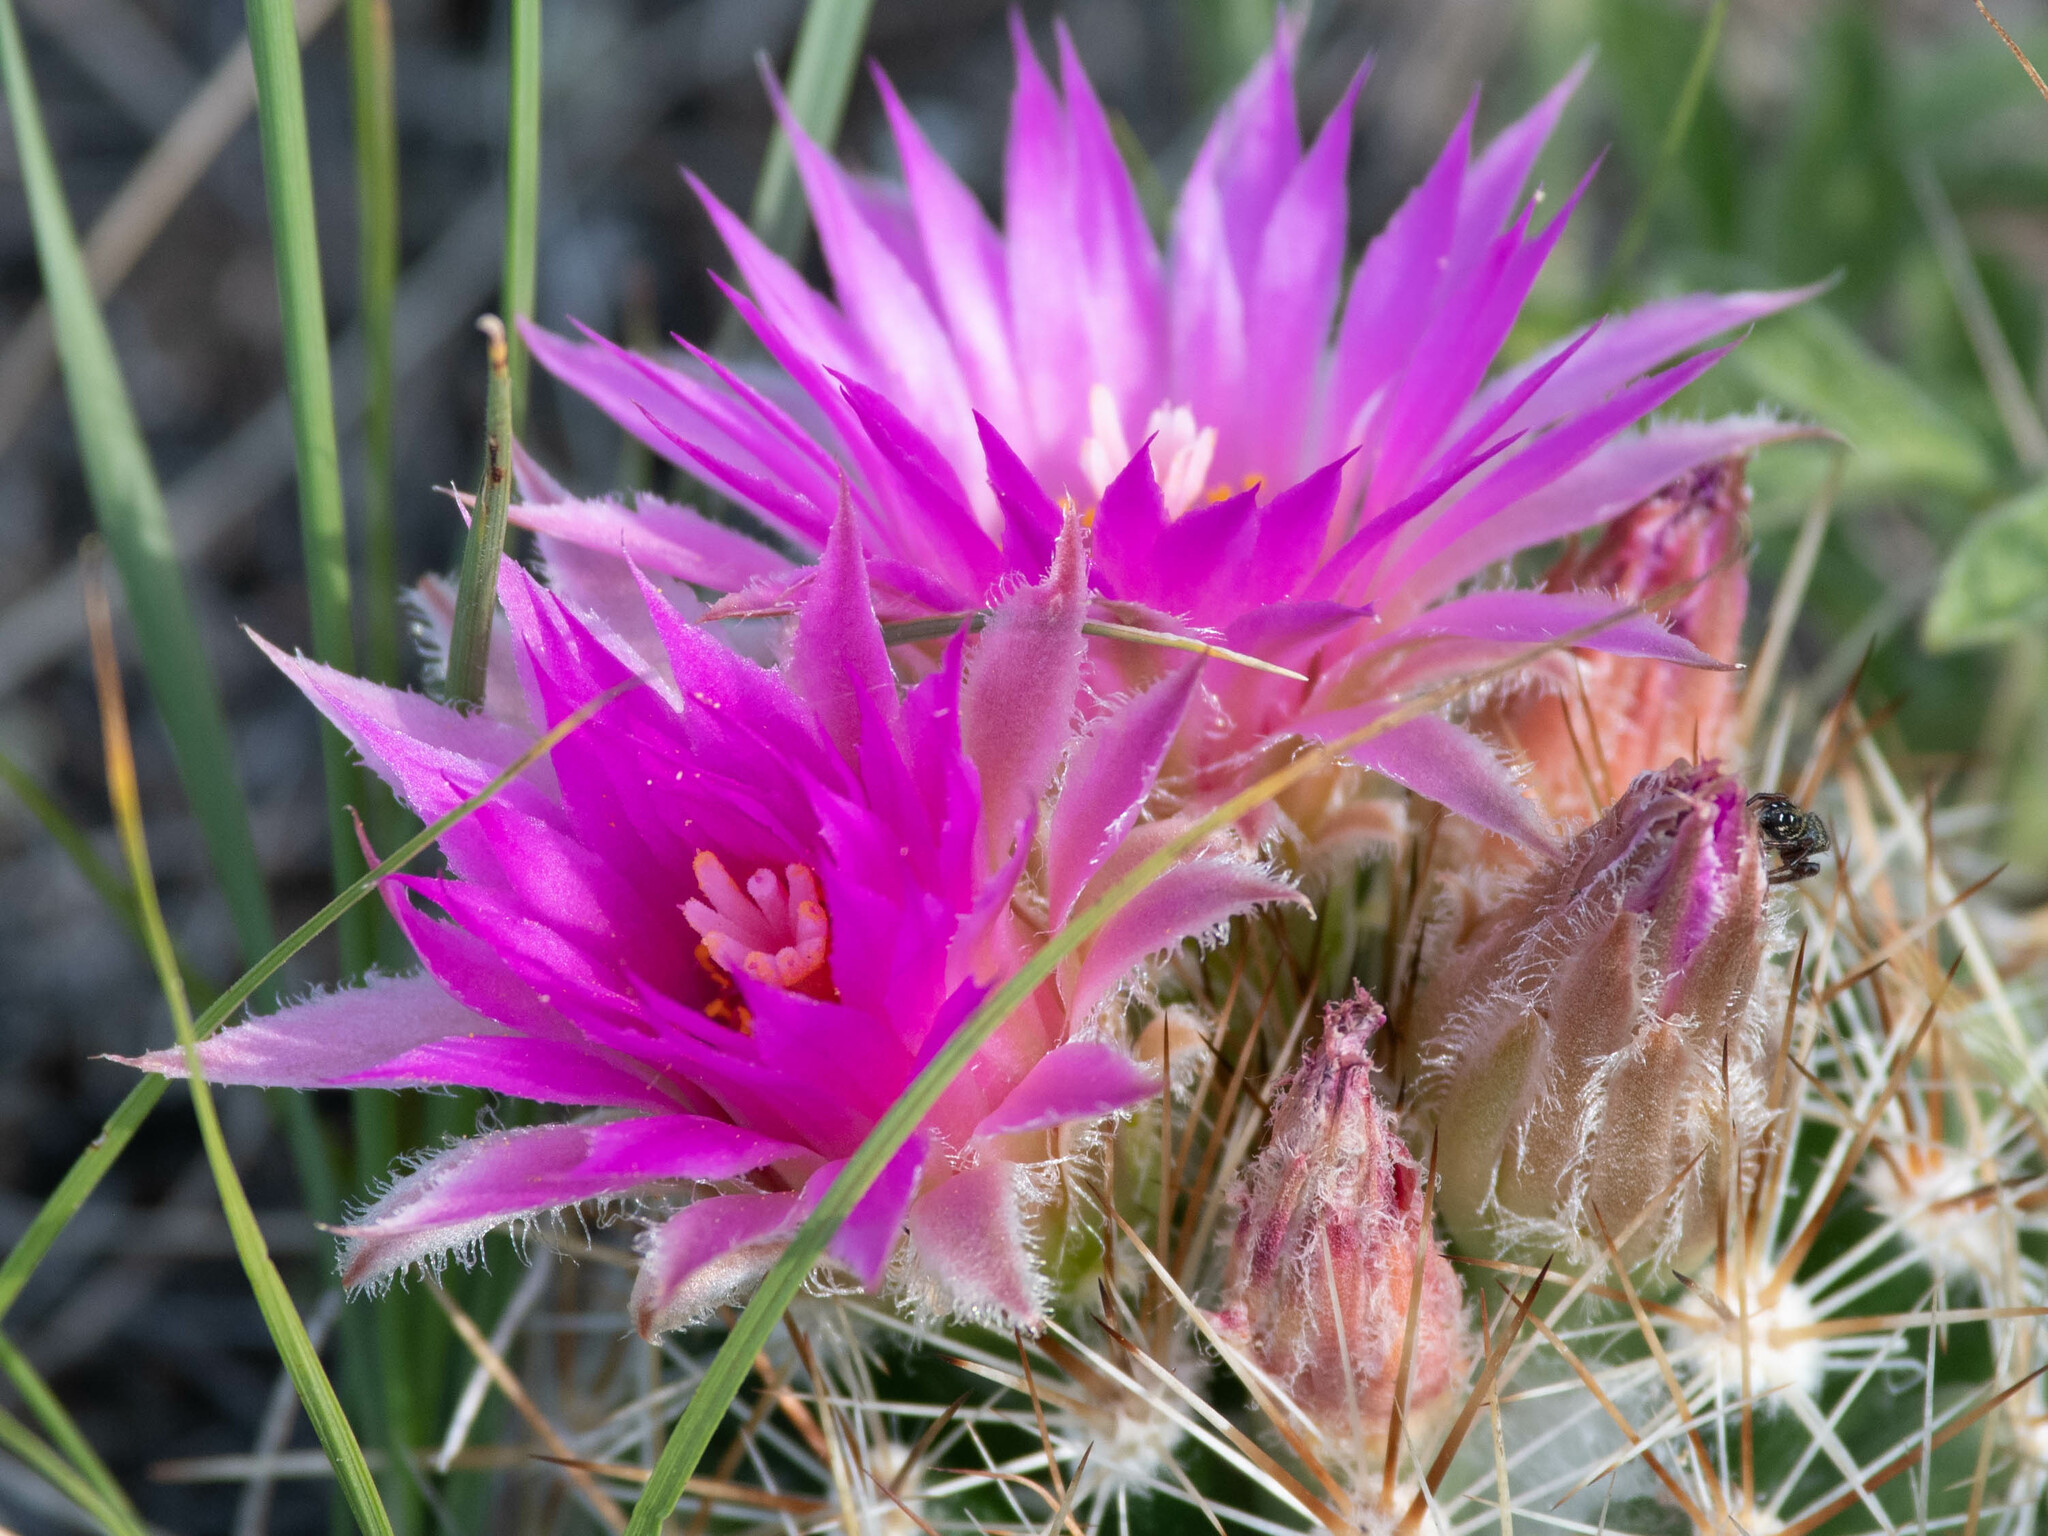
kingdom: Plantae
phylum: Tracheophyta
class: Magnoliopsida
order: Caryophyllales
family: Cactaceae
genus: Pelecyphora
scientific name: Pelecyphora vivipara
